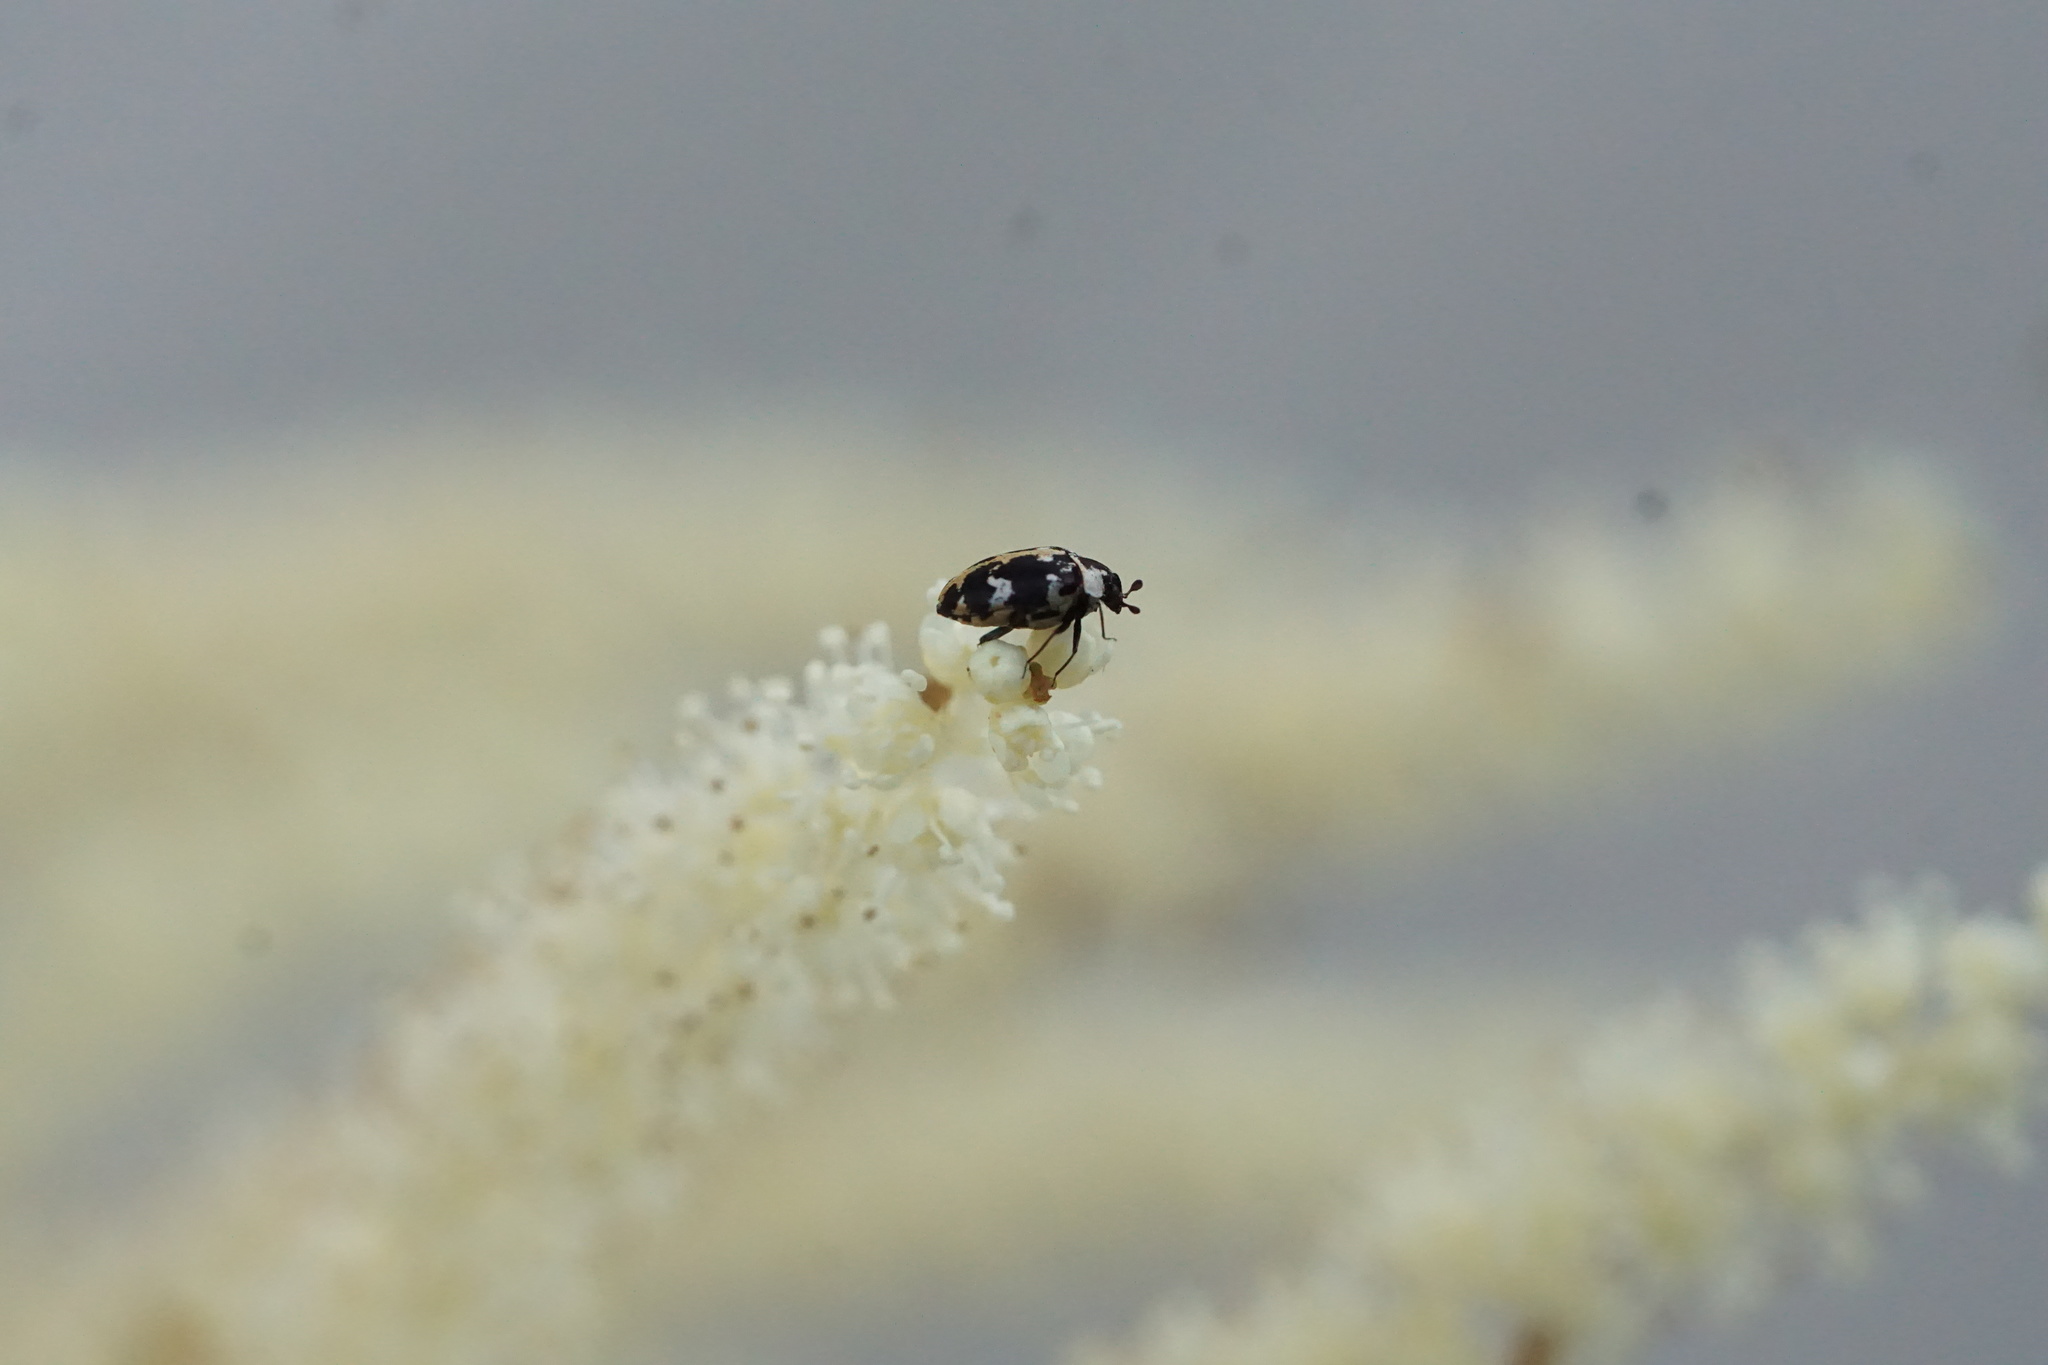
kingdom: Animalia
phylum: Arthropoda
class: Insecta
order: Coleoptera
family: Dermestidae
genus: Anthrenus
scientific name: Anthrenus scrophulariae
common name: Buffalo carpet beetle
